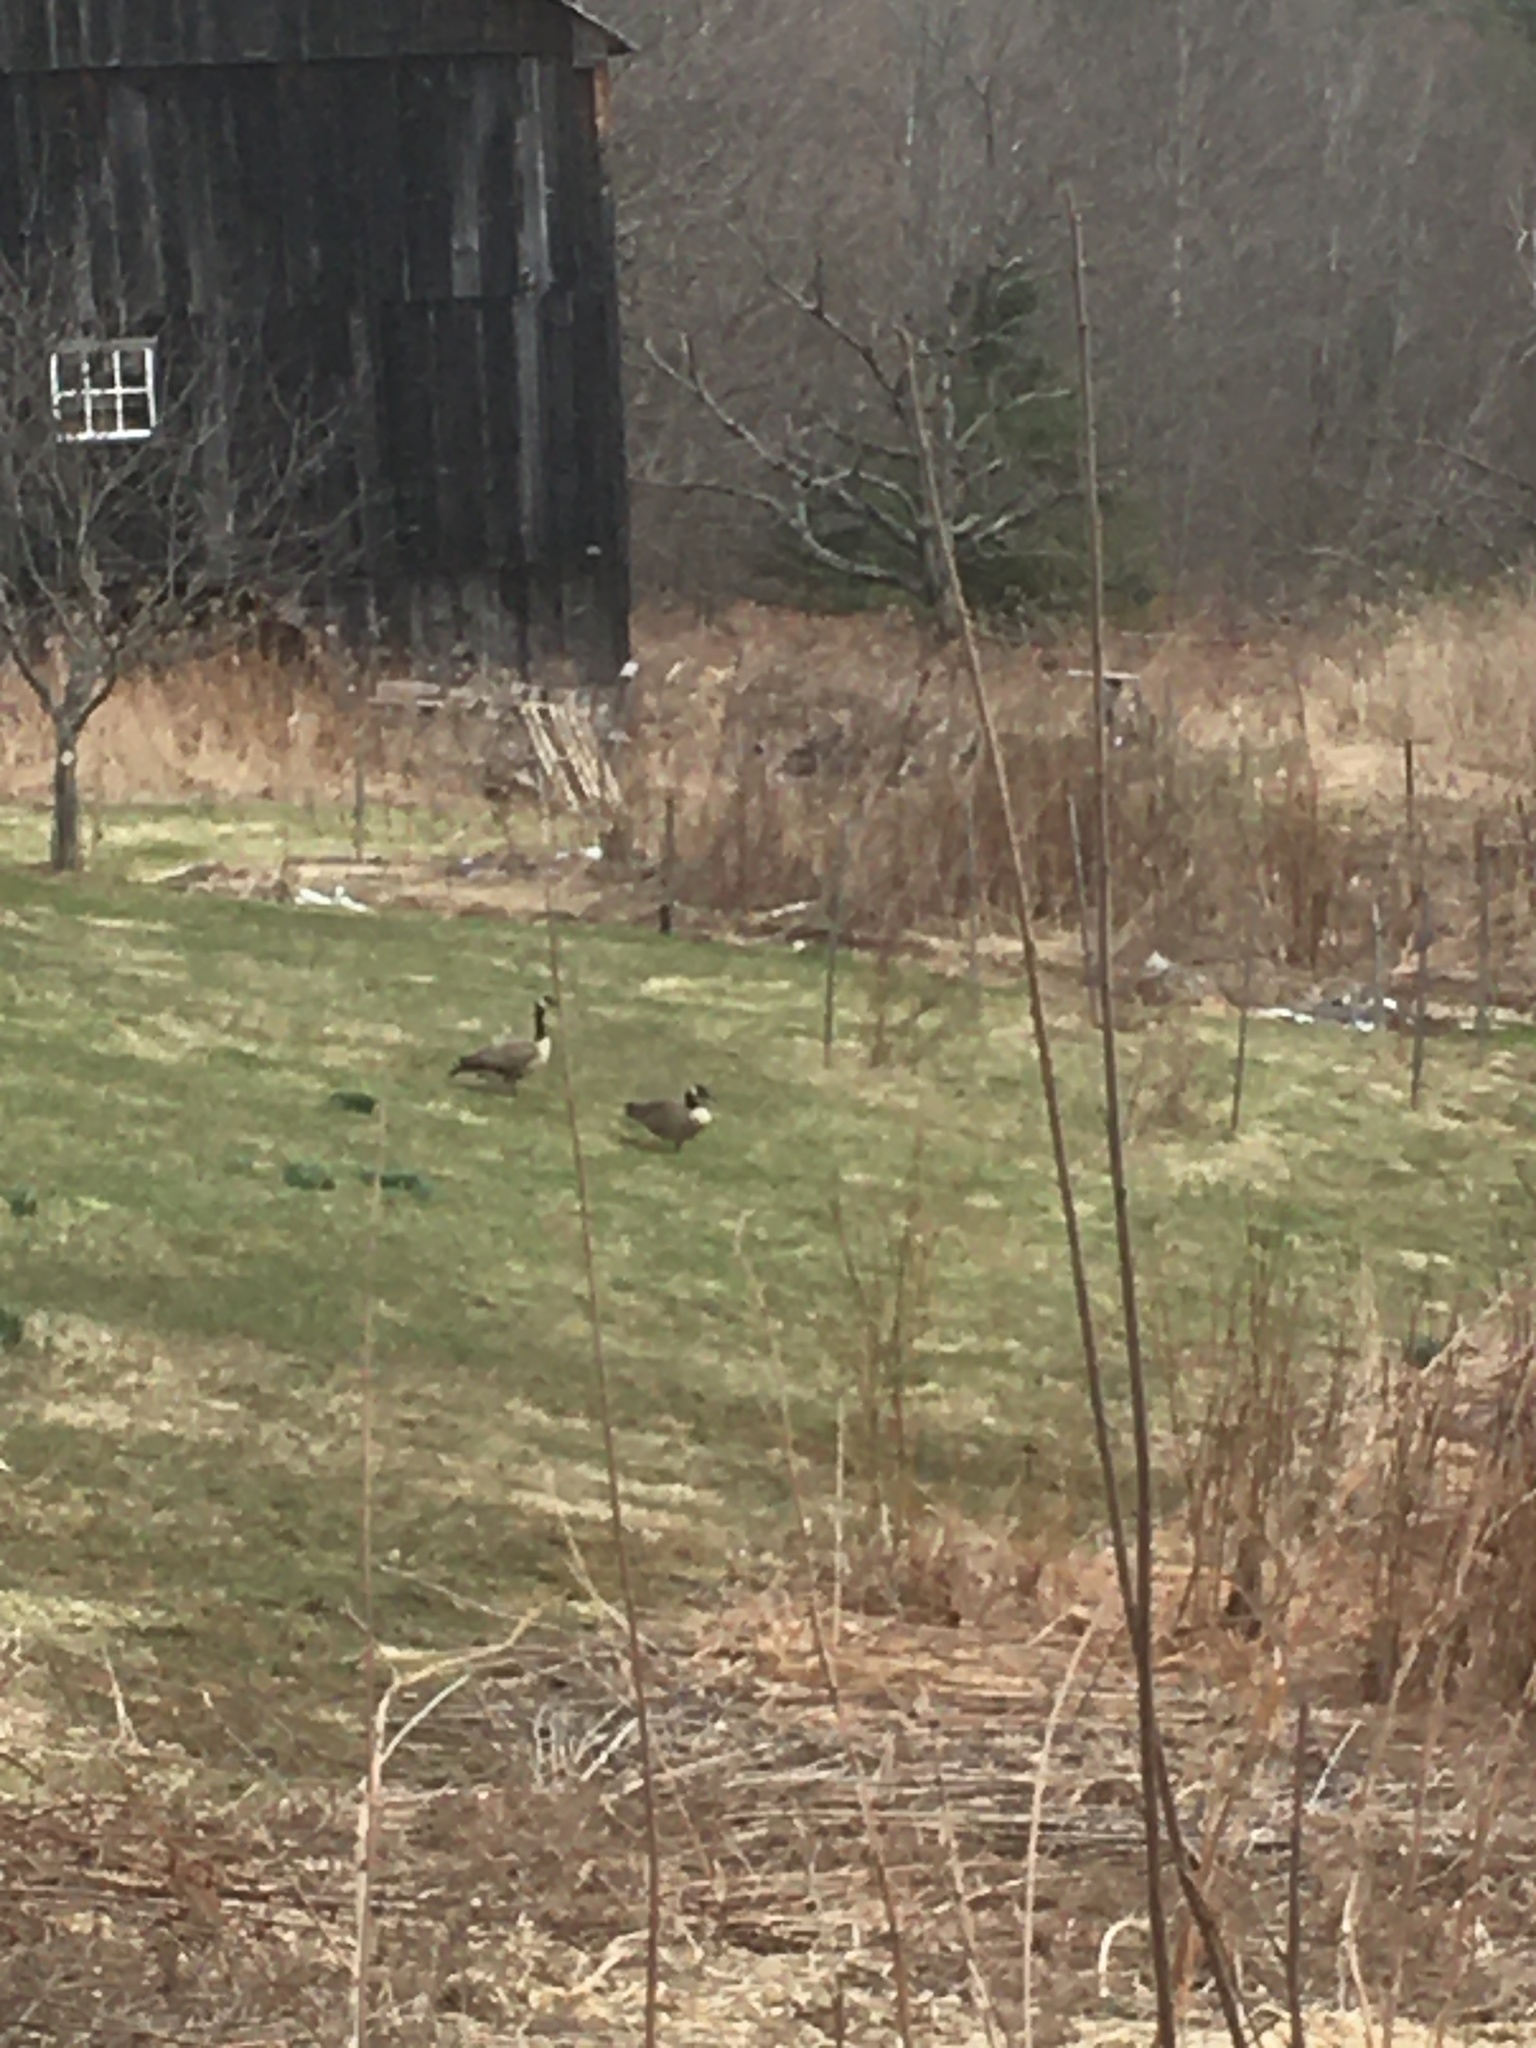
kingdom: Animalia
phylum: Chordata
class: Aves
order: Anseriformes
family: Anatidae
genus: Branta
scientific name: Branta canadensis
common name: Canada goose
